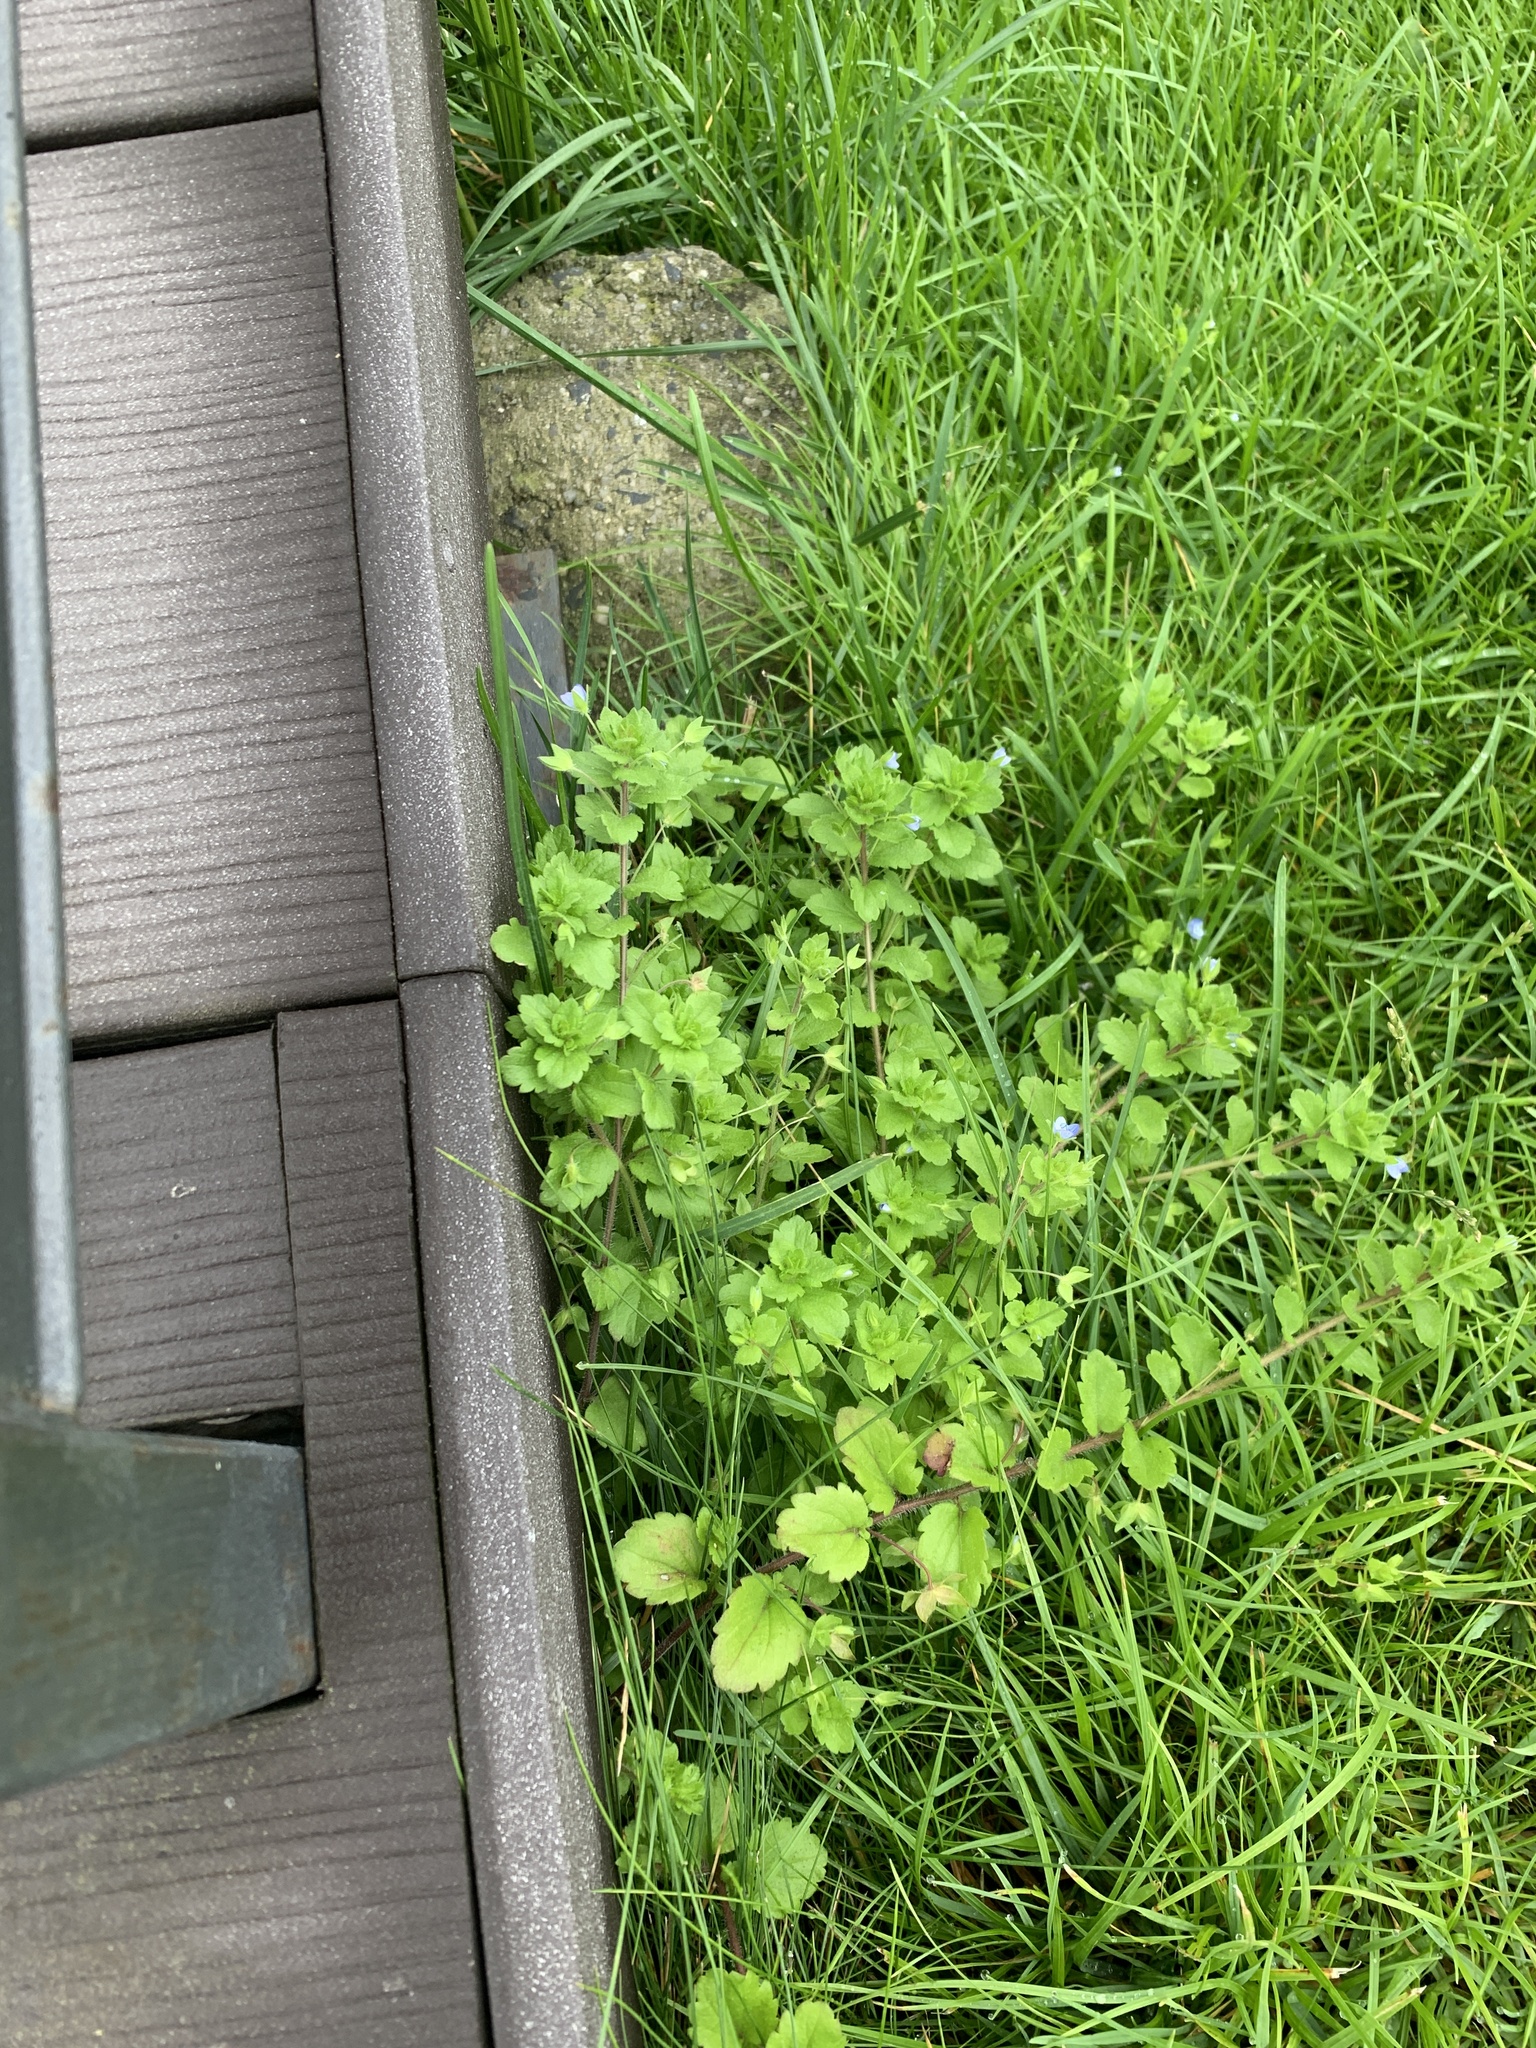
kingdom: Plantae
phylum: Tracheophyta
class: Magnoliopsida
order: Lamiales
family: Plantaginaceae
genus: Veronica
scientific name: Veronica persica
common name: Common field-speedwell
